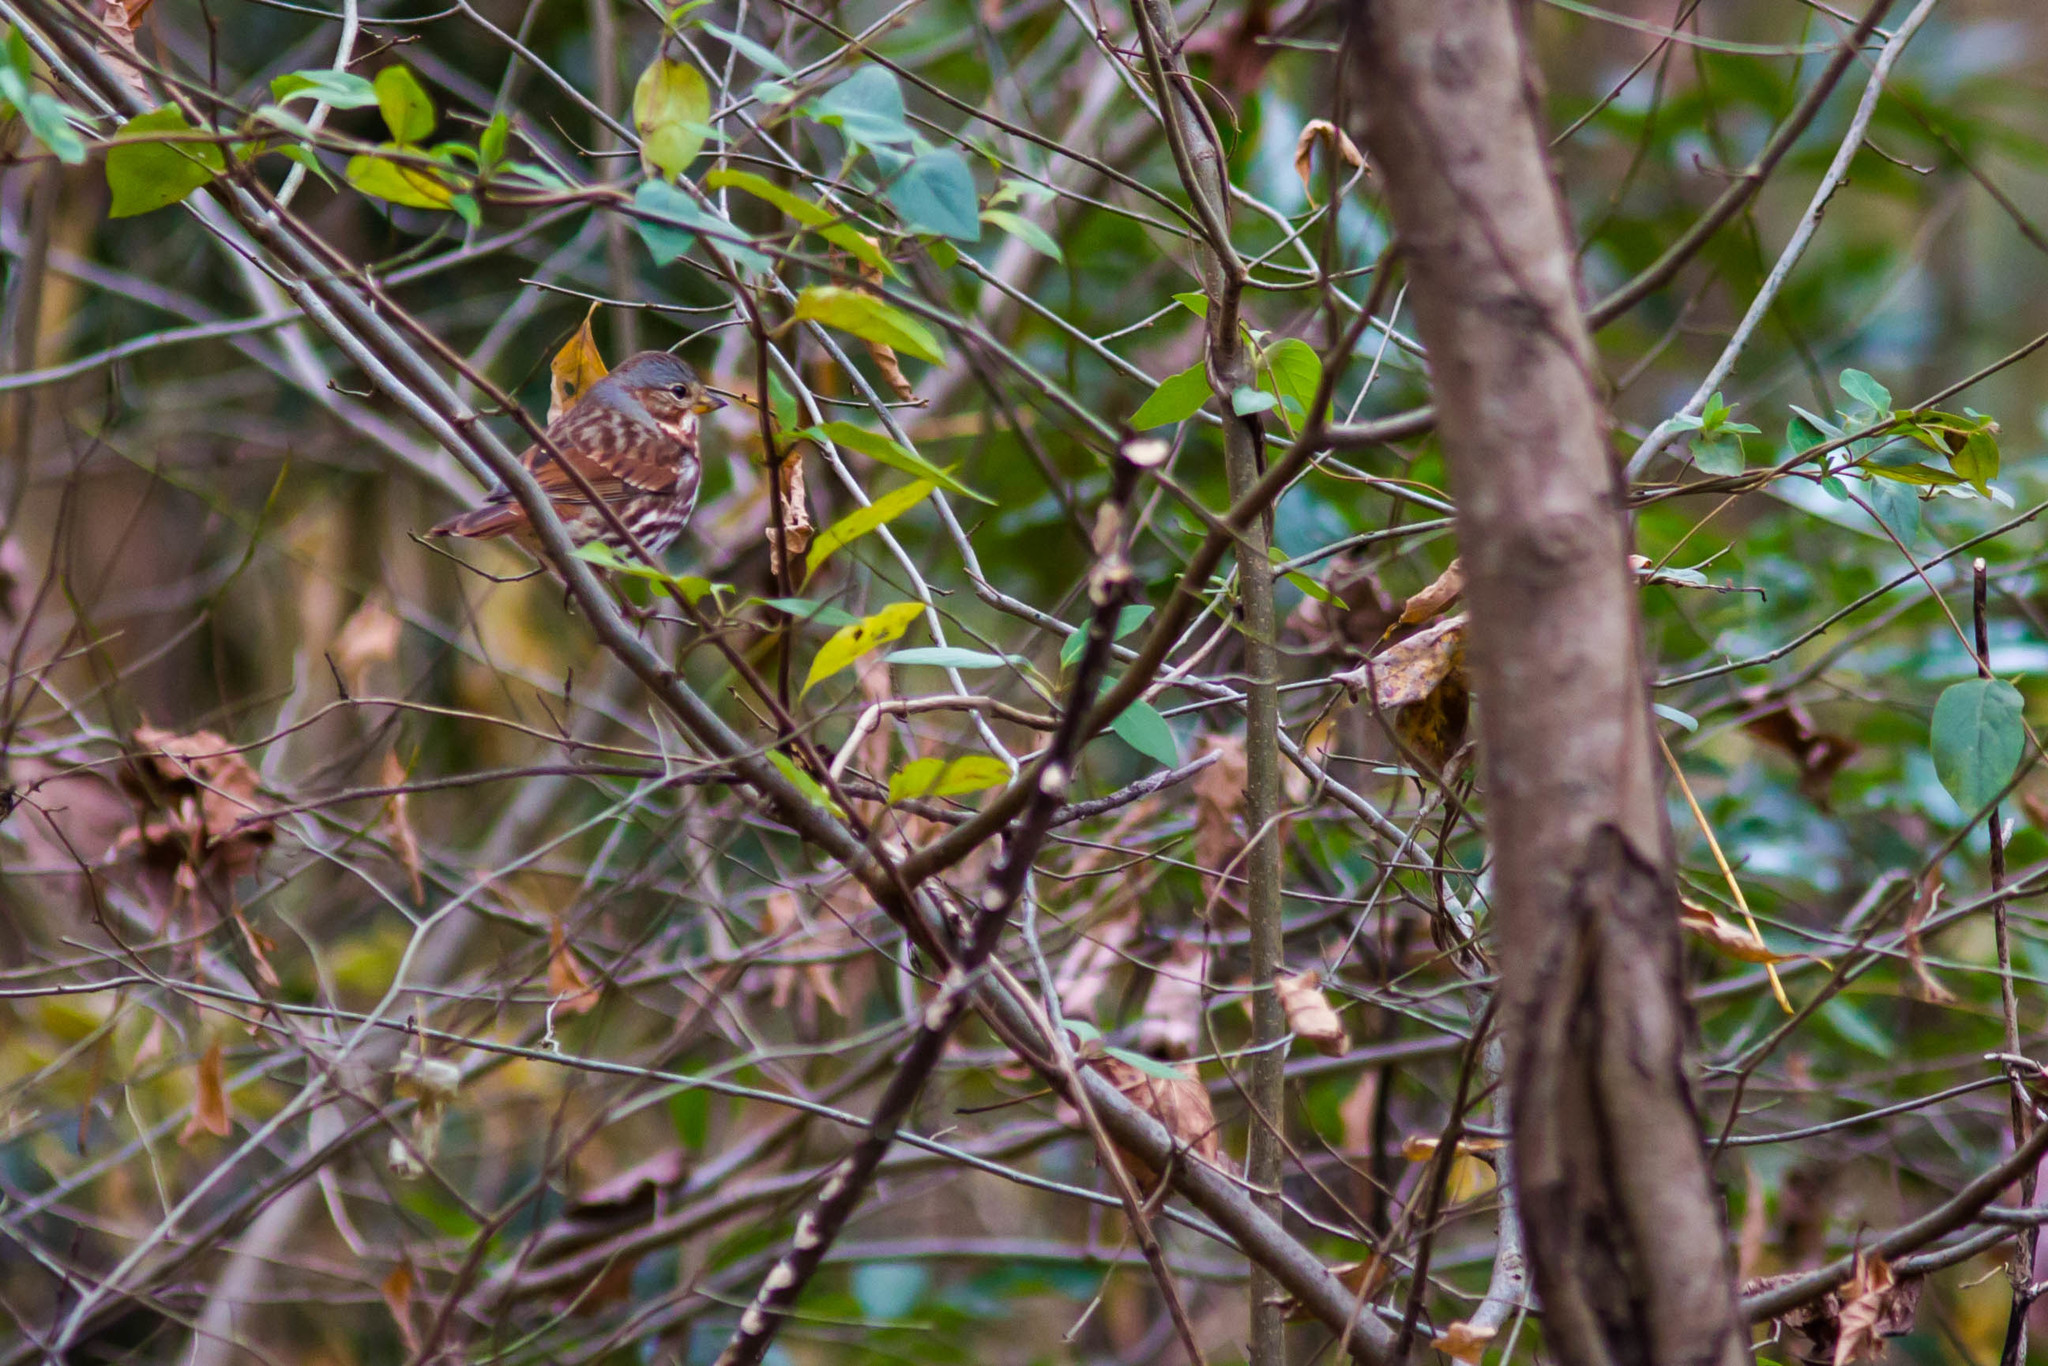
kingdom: Animalia
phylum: Chordata
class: Aves
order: Passeriformes
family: Passerellidae
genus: Passerella
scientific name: Passerella iliaca
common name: Fox sparrow
